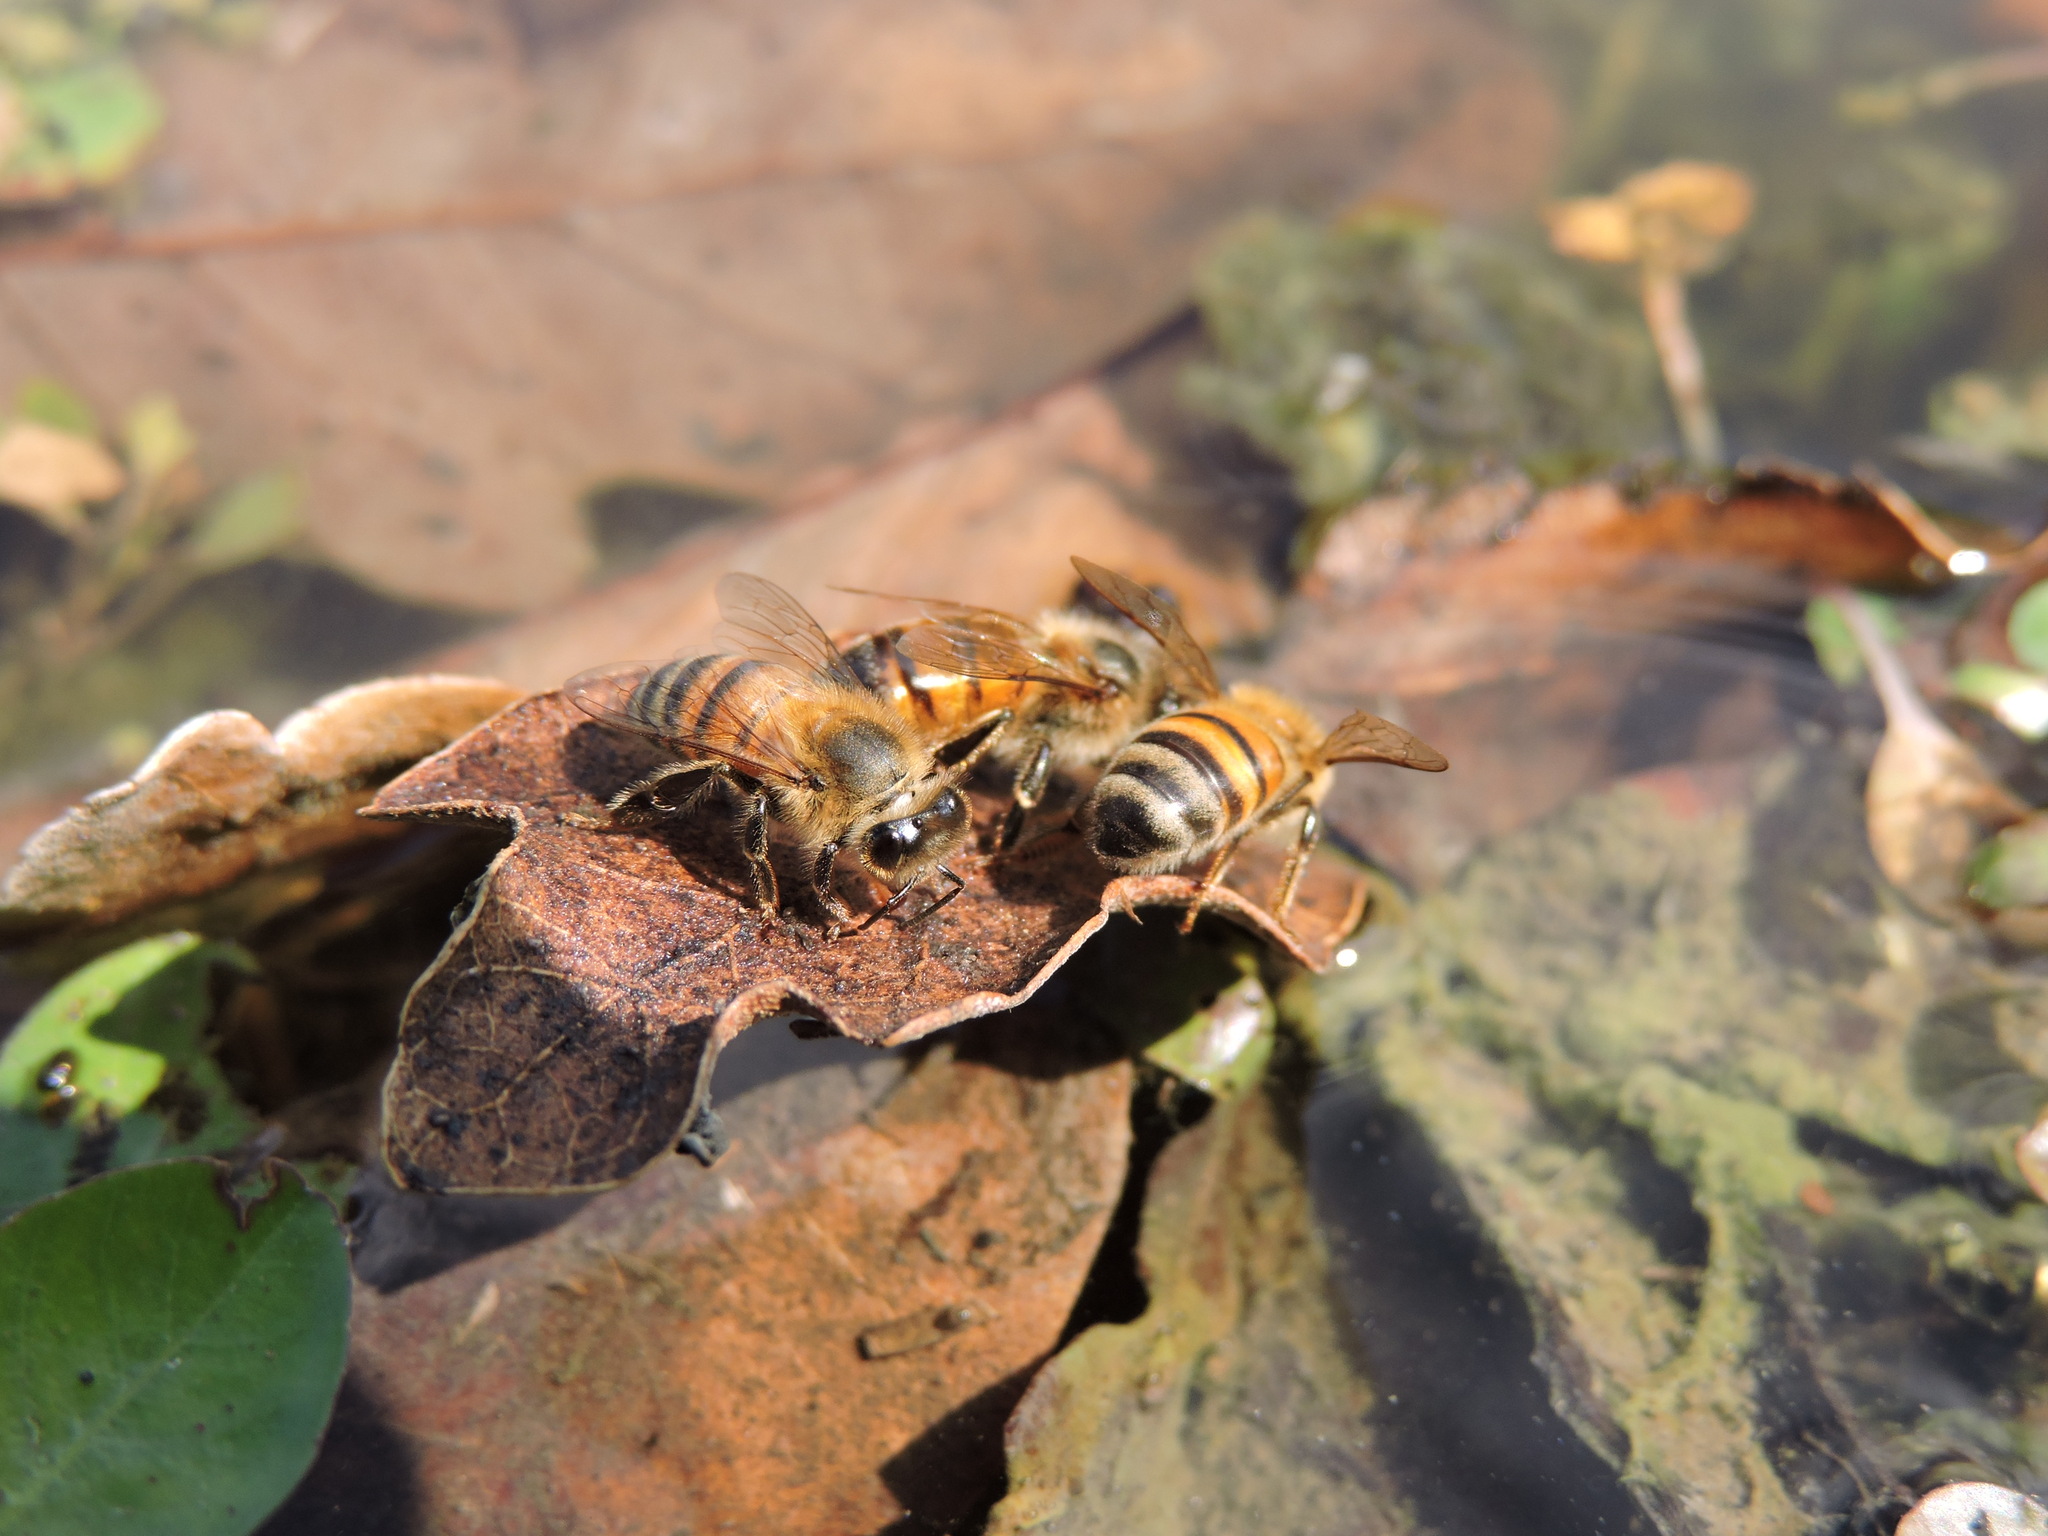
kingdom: Animalia
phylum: Arthropoda
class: Insecta
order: Hymenoptera
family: Apidae
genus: Apis
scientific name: Apis mellifera
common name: Honey bee
